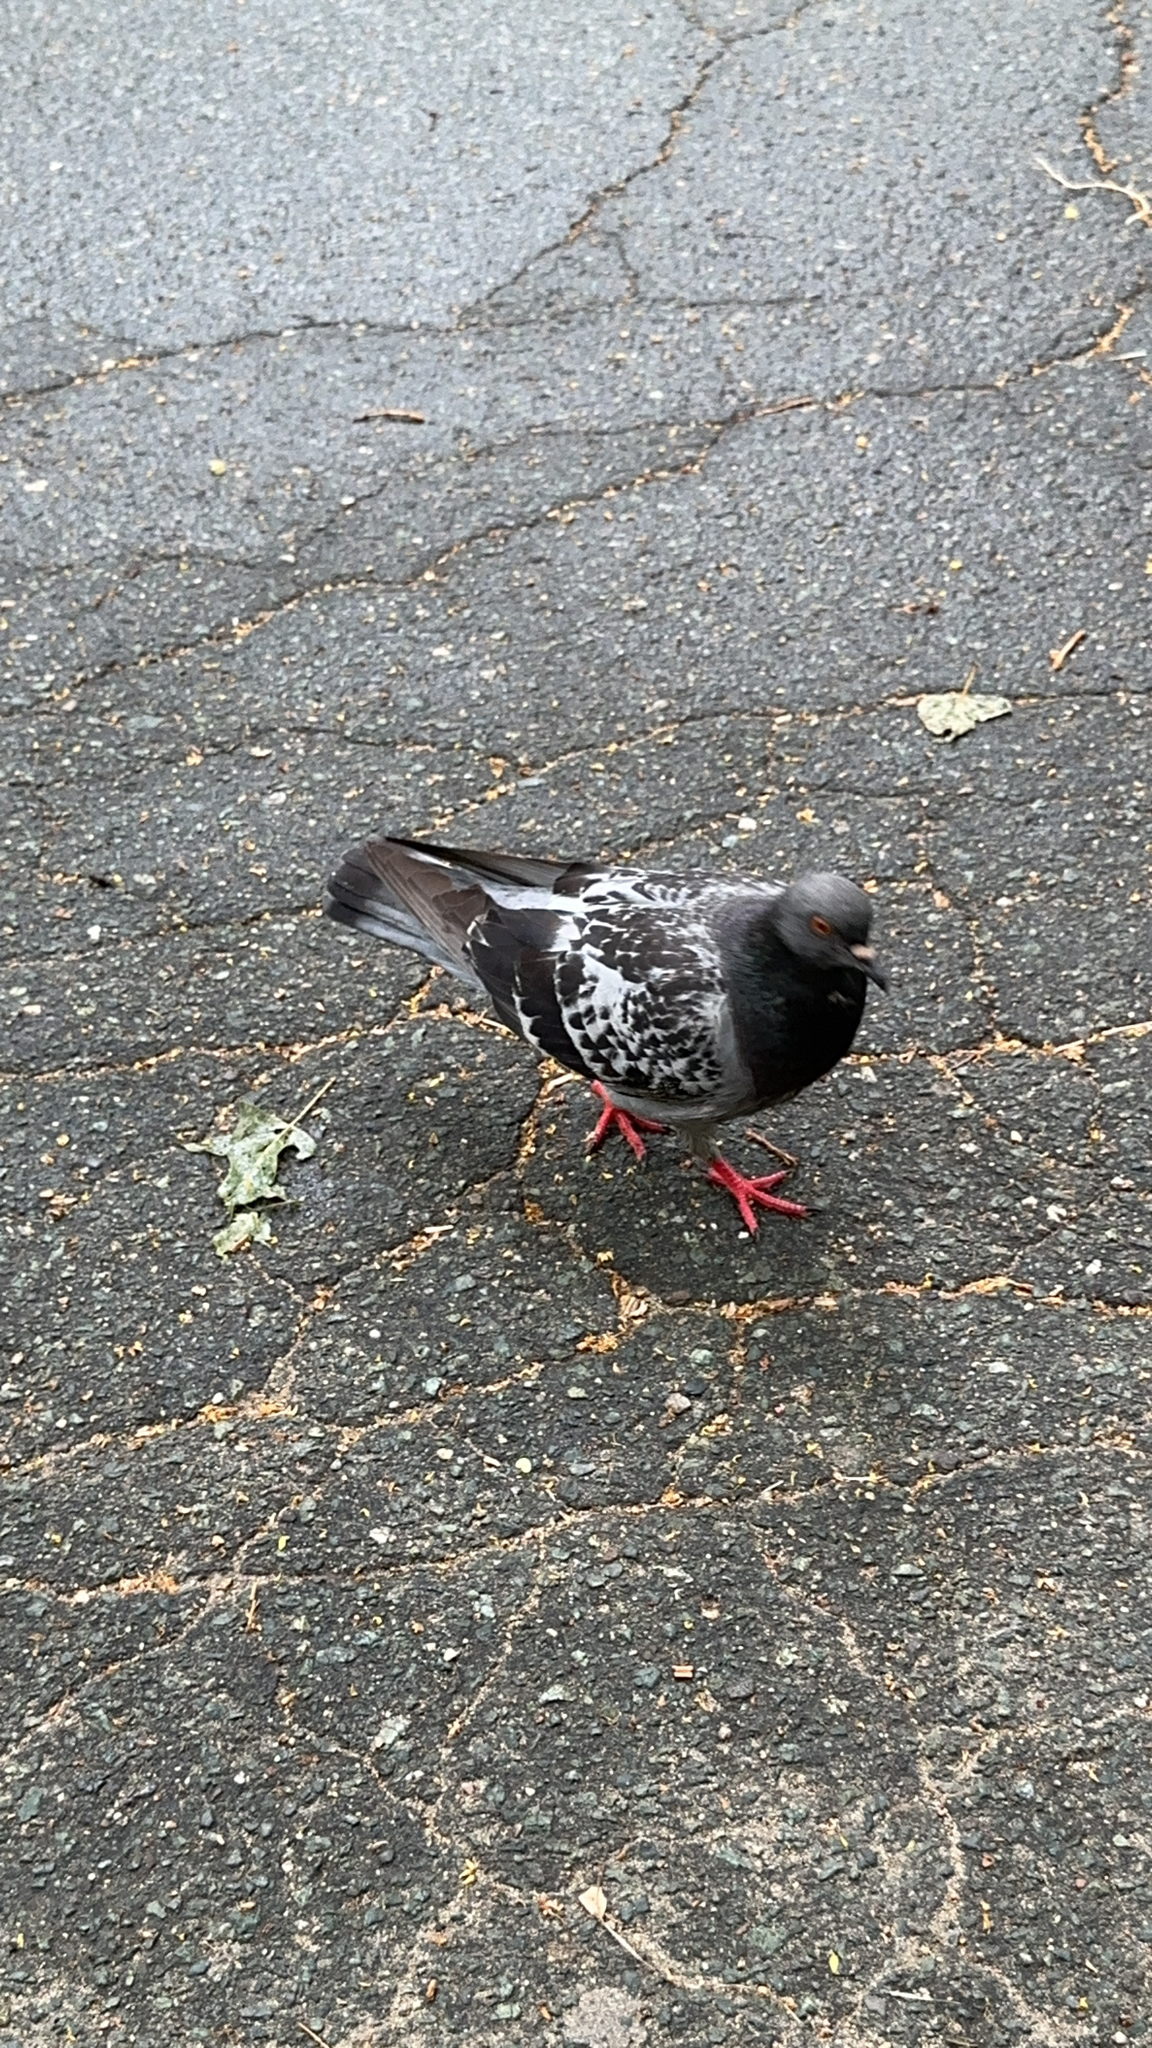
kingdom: Animalia
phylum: Chordata
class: Aves
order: Columbiformes
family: Columbidae
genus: Columba
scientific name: Columba livia
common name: Rock pigeon
